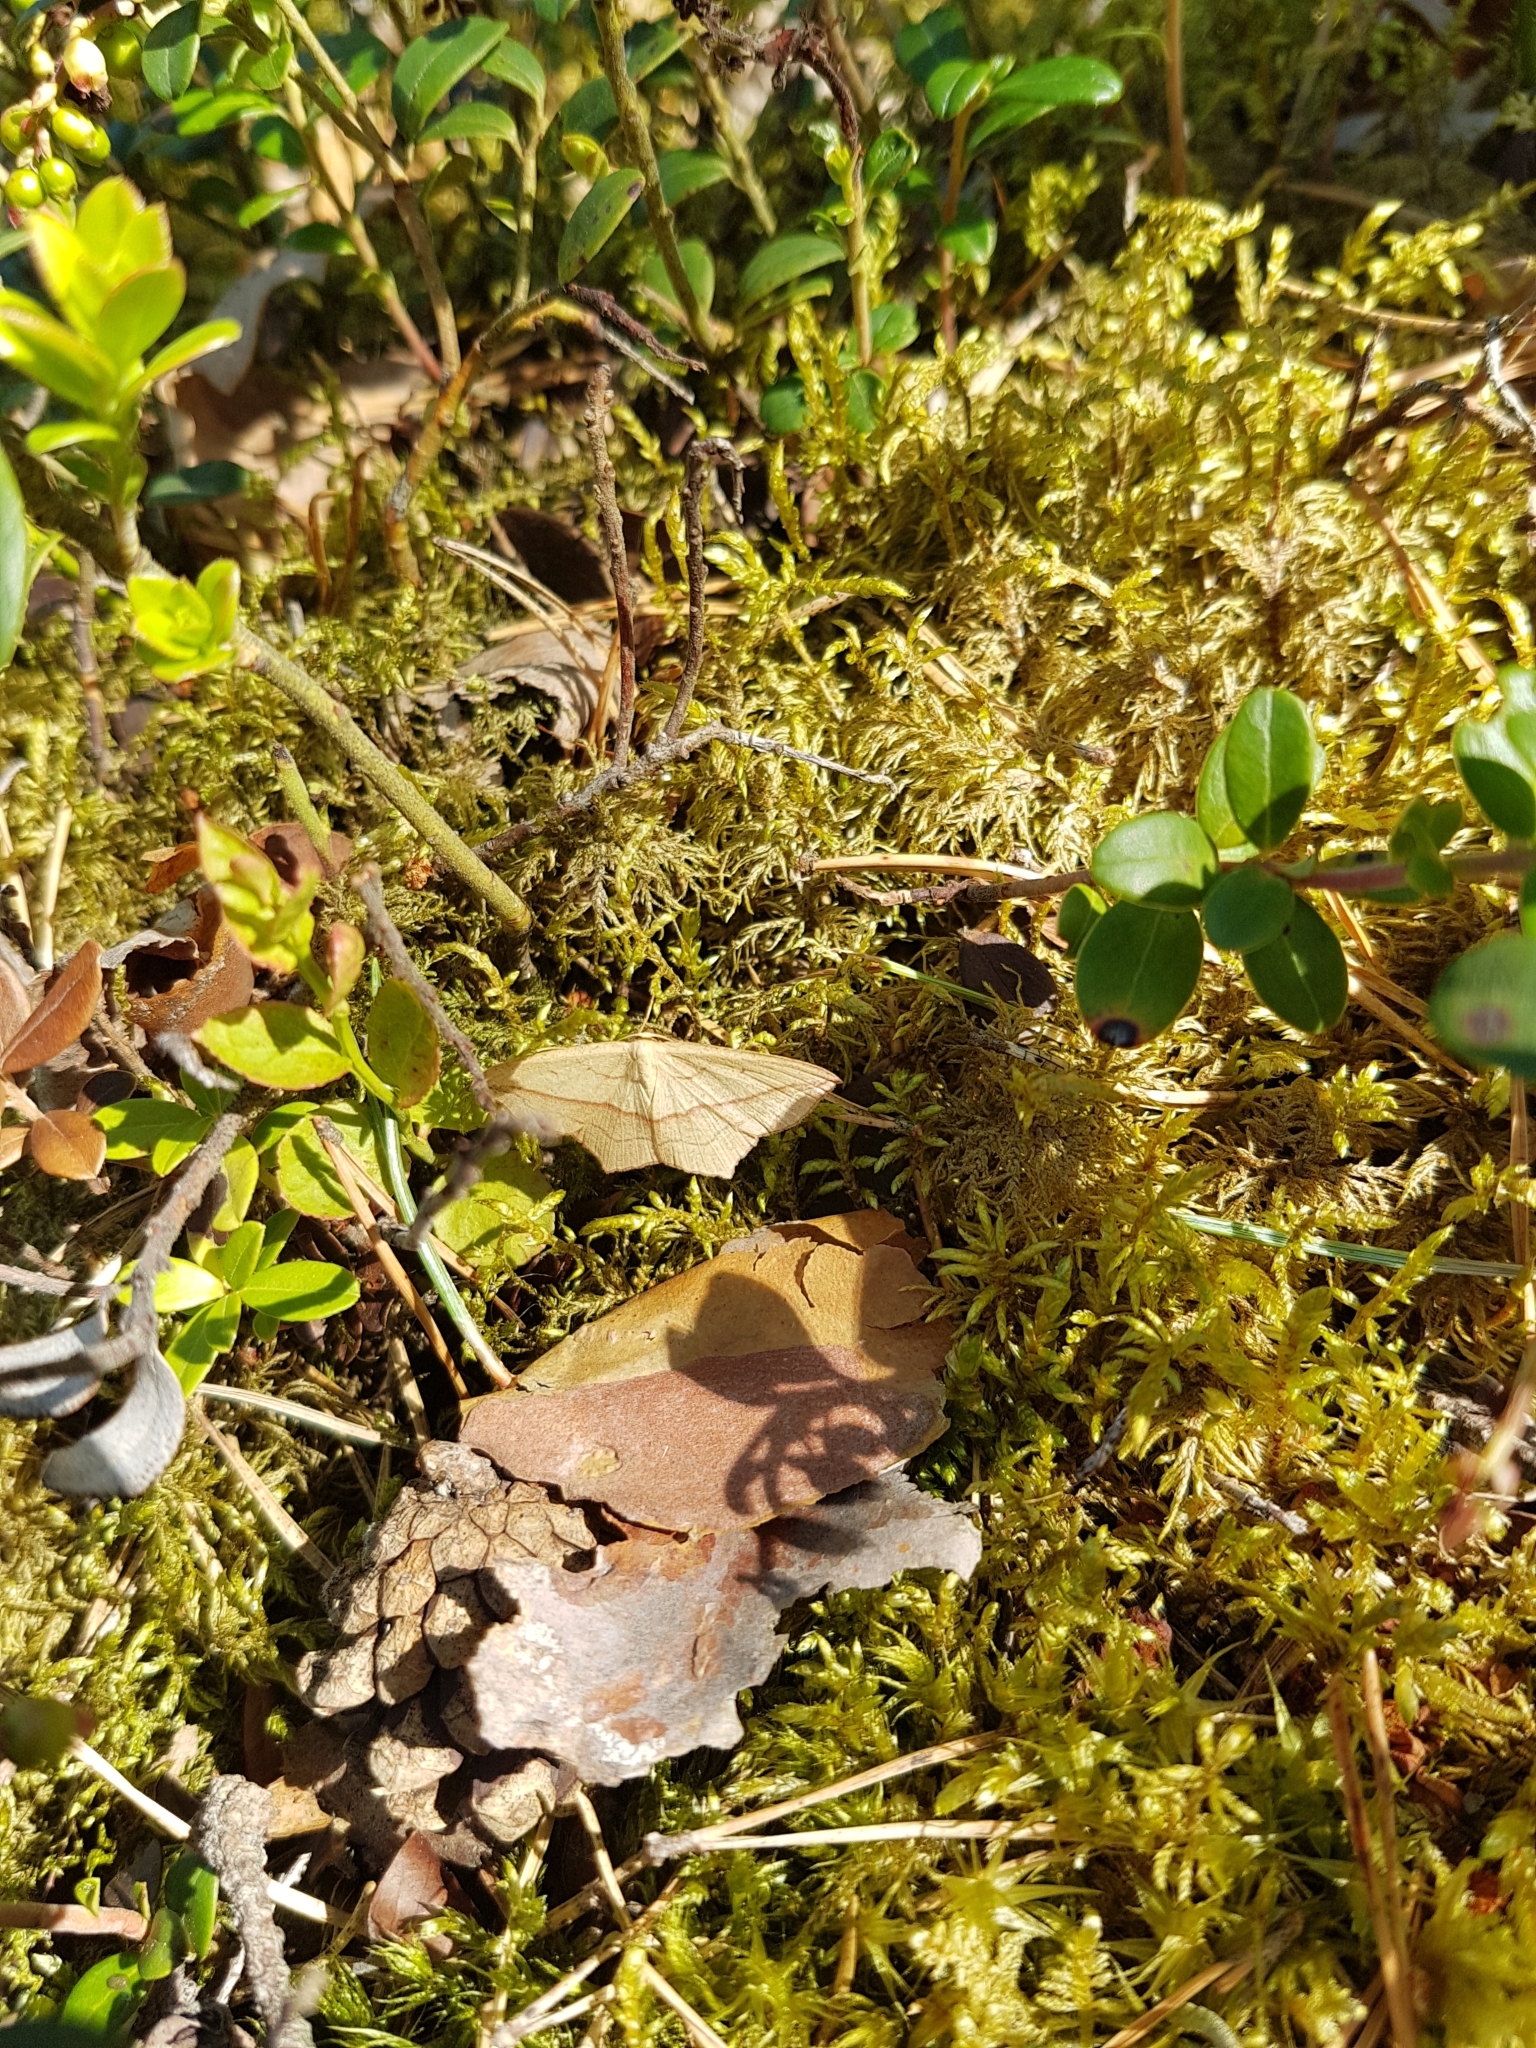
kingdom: Animalia
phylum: Arthropoda
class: Insecta
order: Lepidoptera
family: Geometridae
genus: Timandra
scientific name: Timandra comae
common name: Blood-vein
